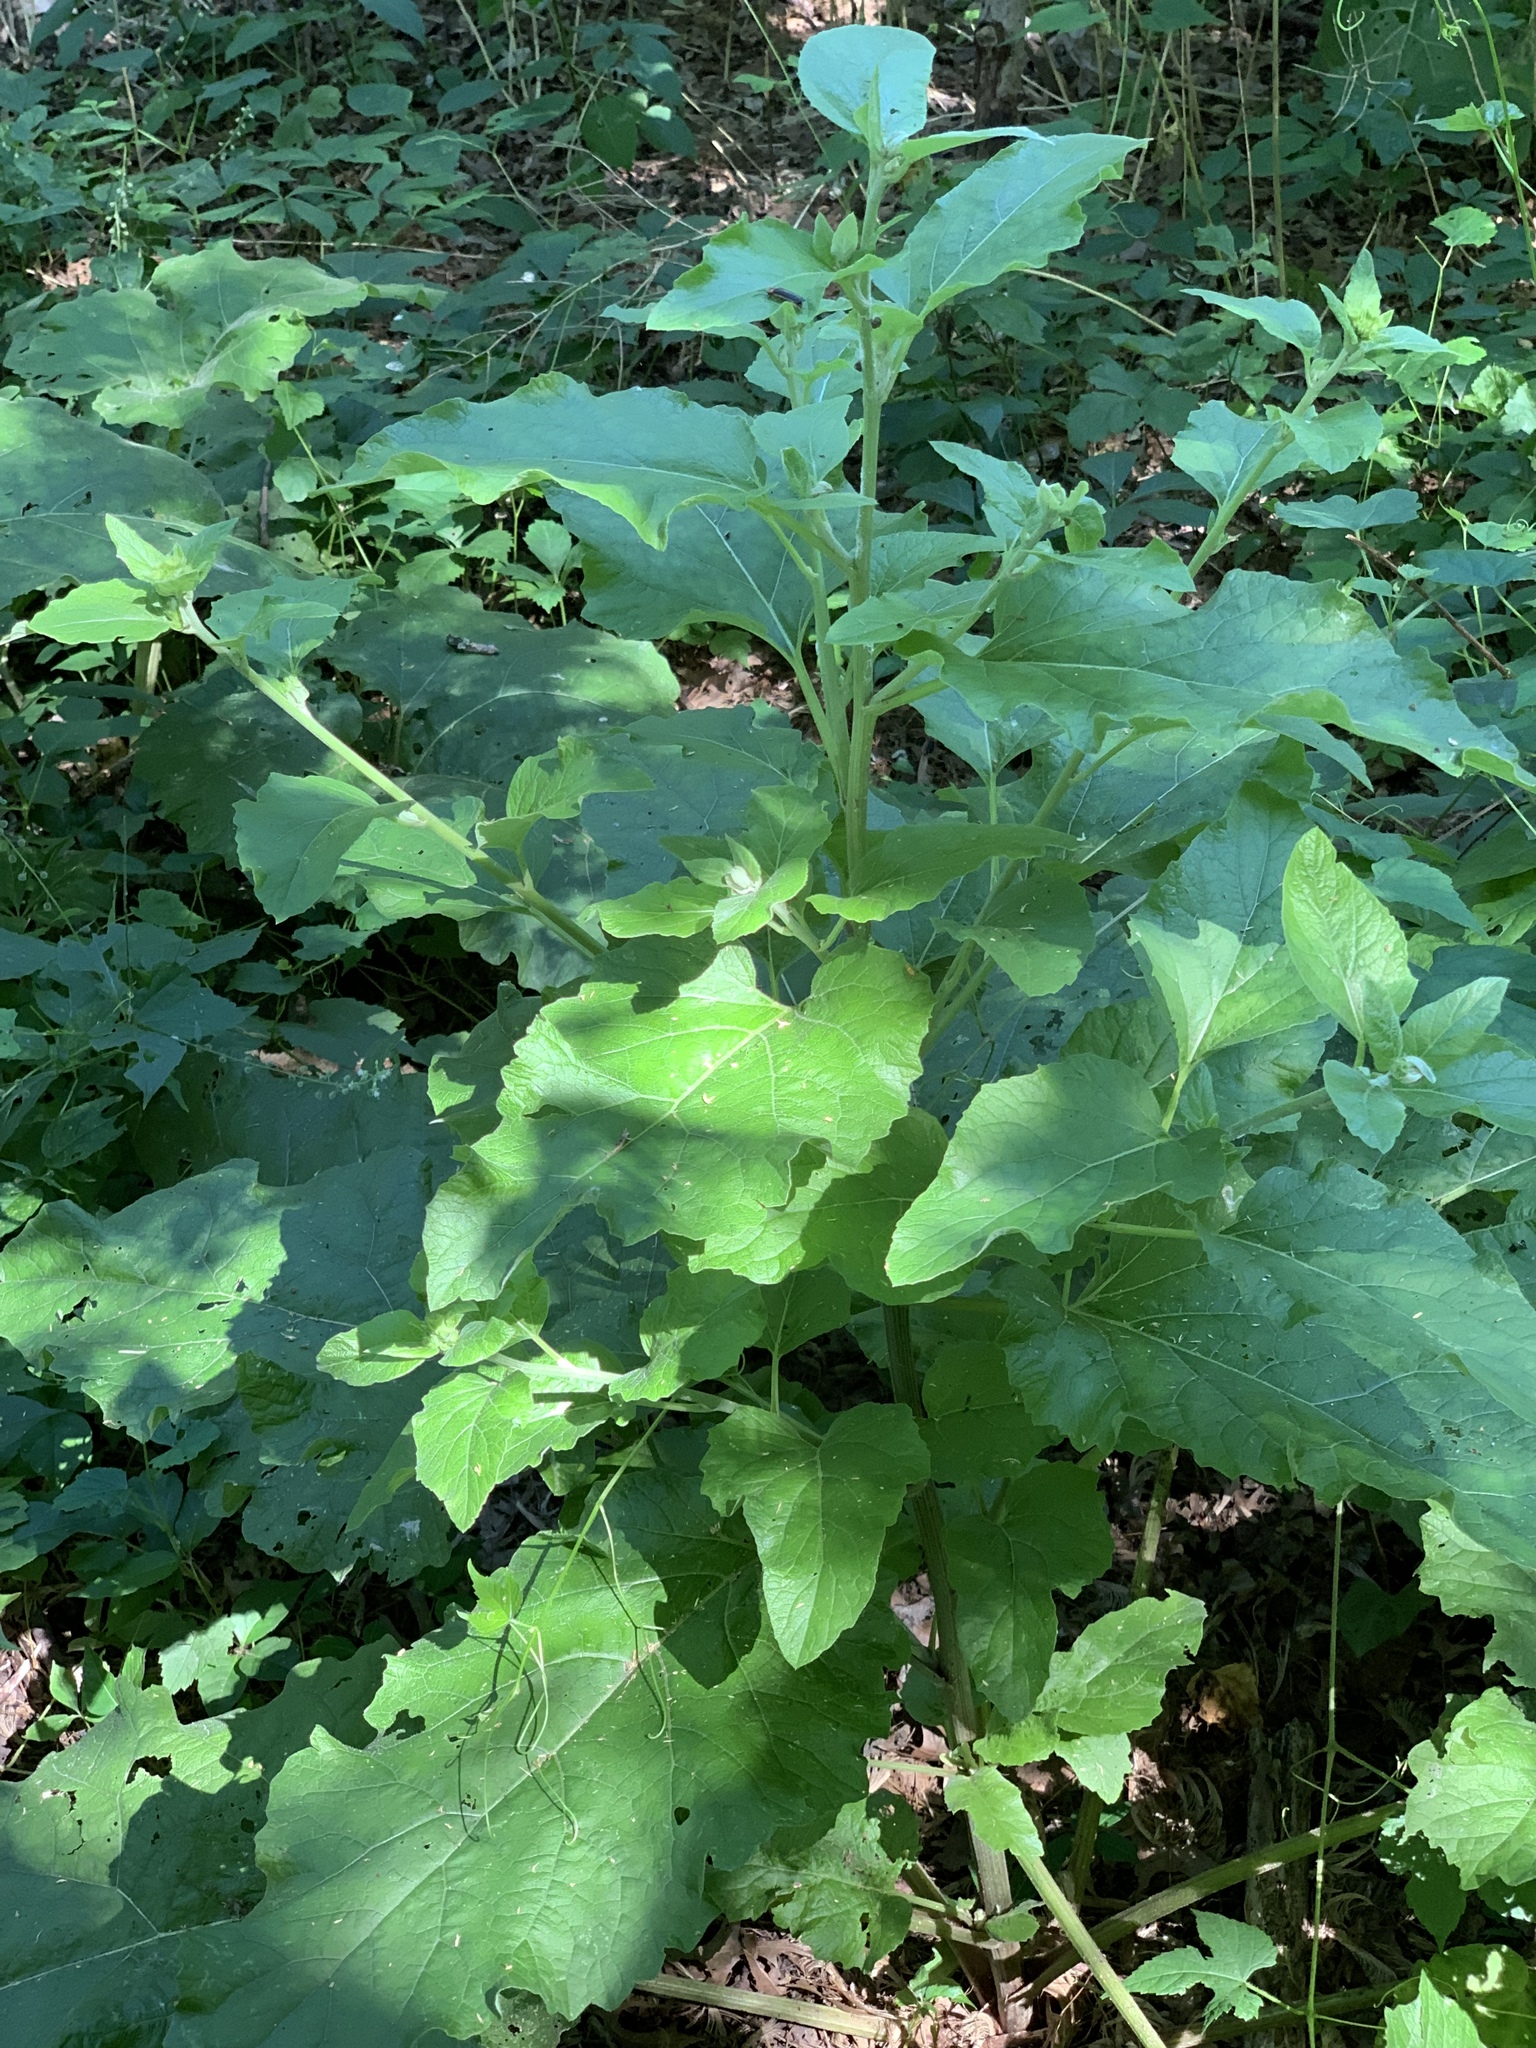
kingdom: Plantae
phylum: Tracheophyta
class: Magnoliopsida
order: Asterales
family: Asteraceae
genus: Arctium
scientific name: Arctium
